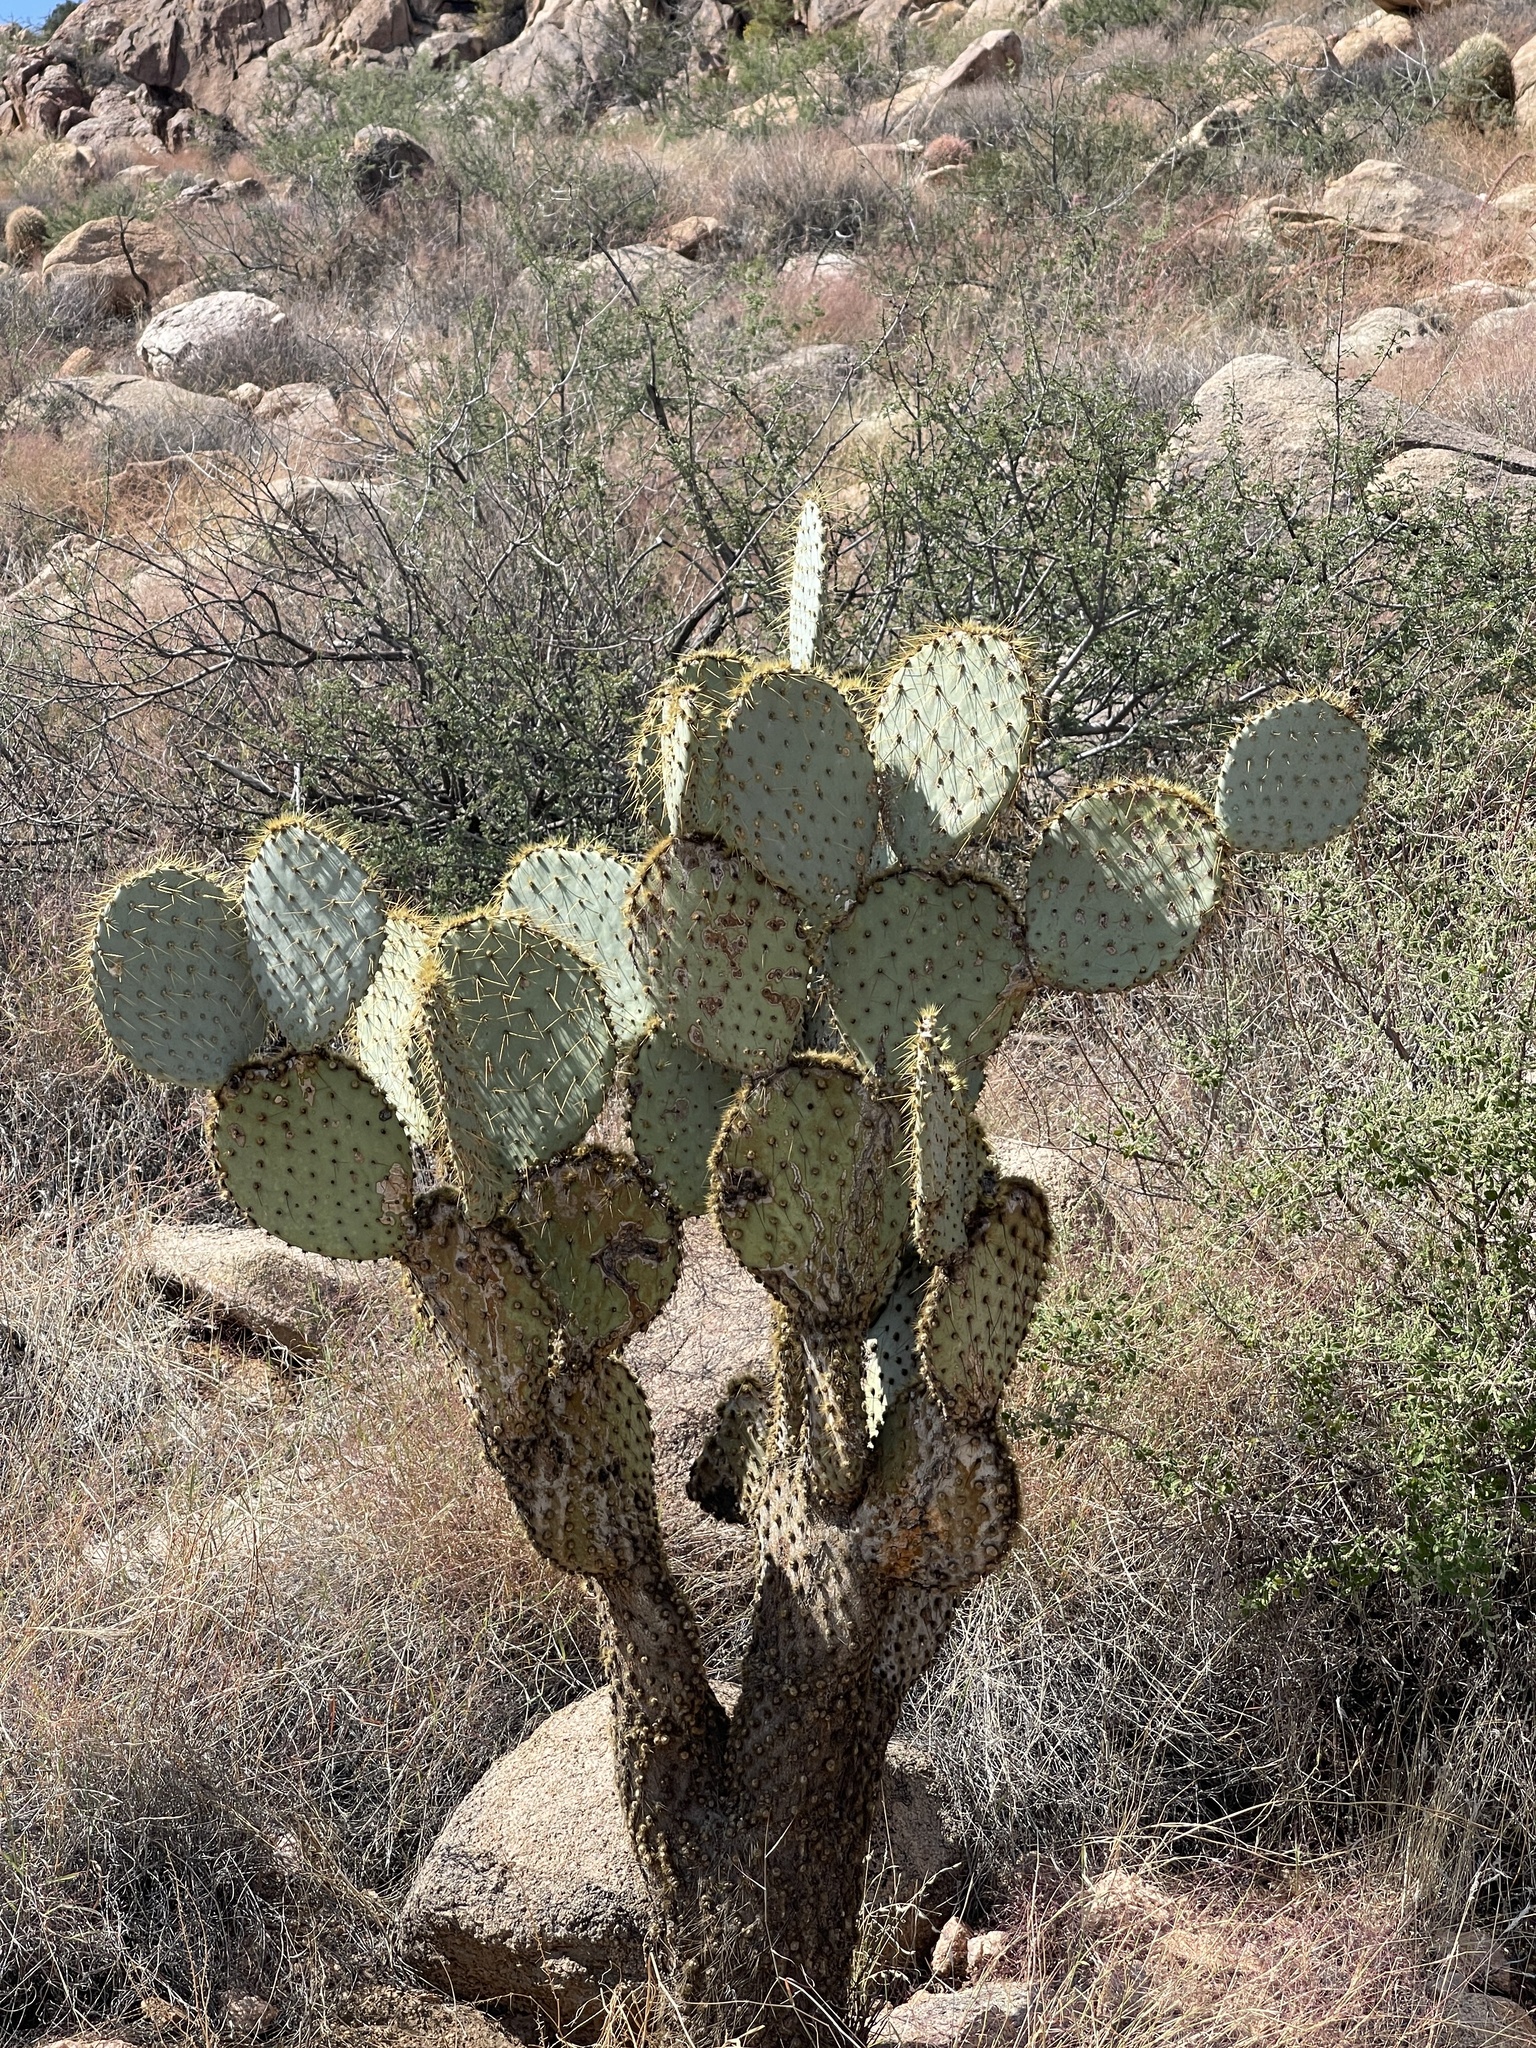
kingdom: Plantae
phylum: Tracheophyta
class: Magnoliopsida
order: Caryophyllales
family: Cactaceae
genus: Opuntia
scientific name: Opuntia chlorotica
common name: Dollar-joint prickly-pear
